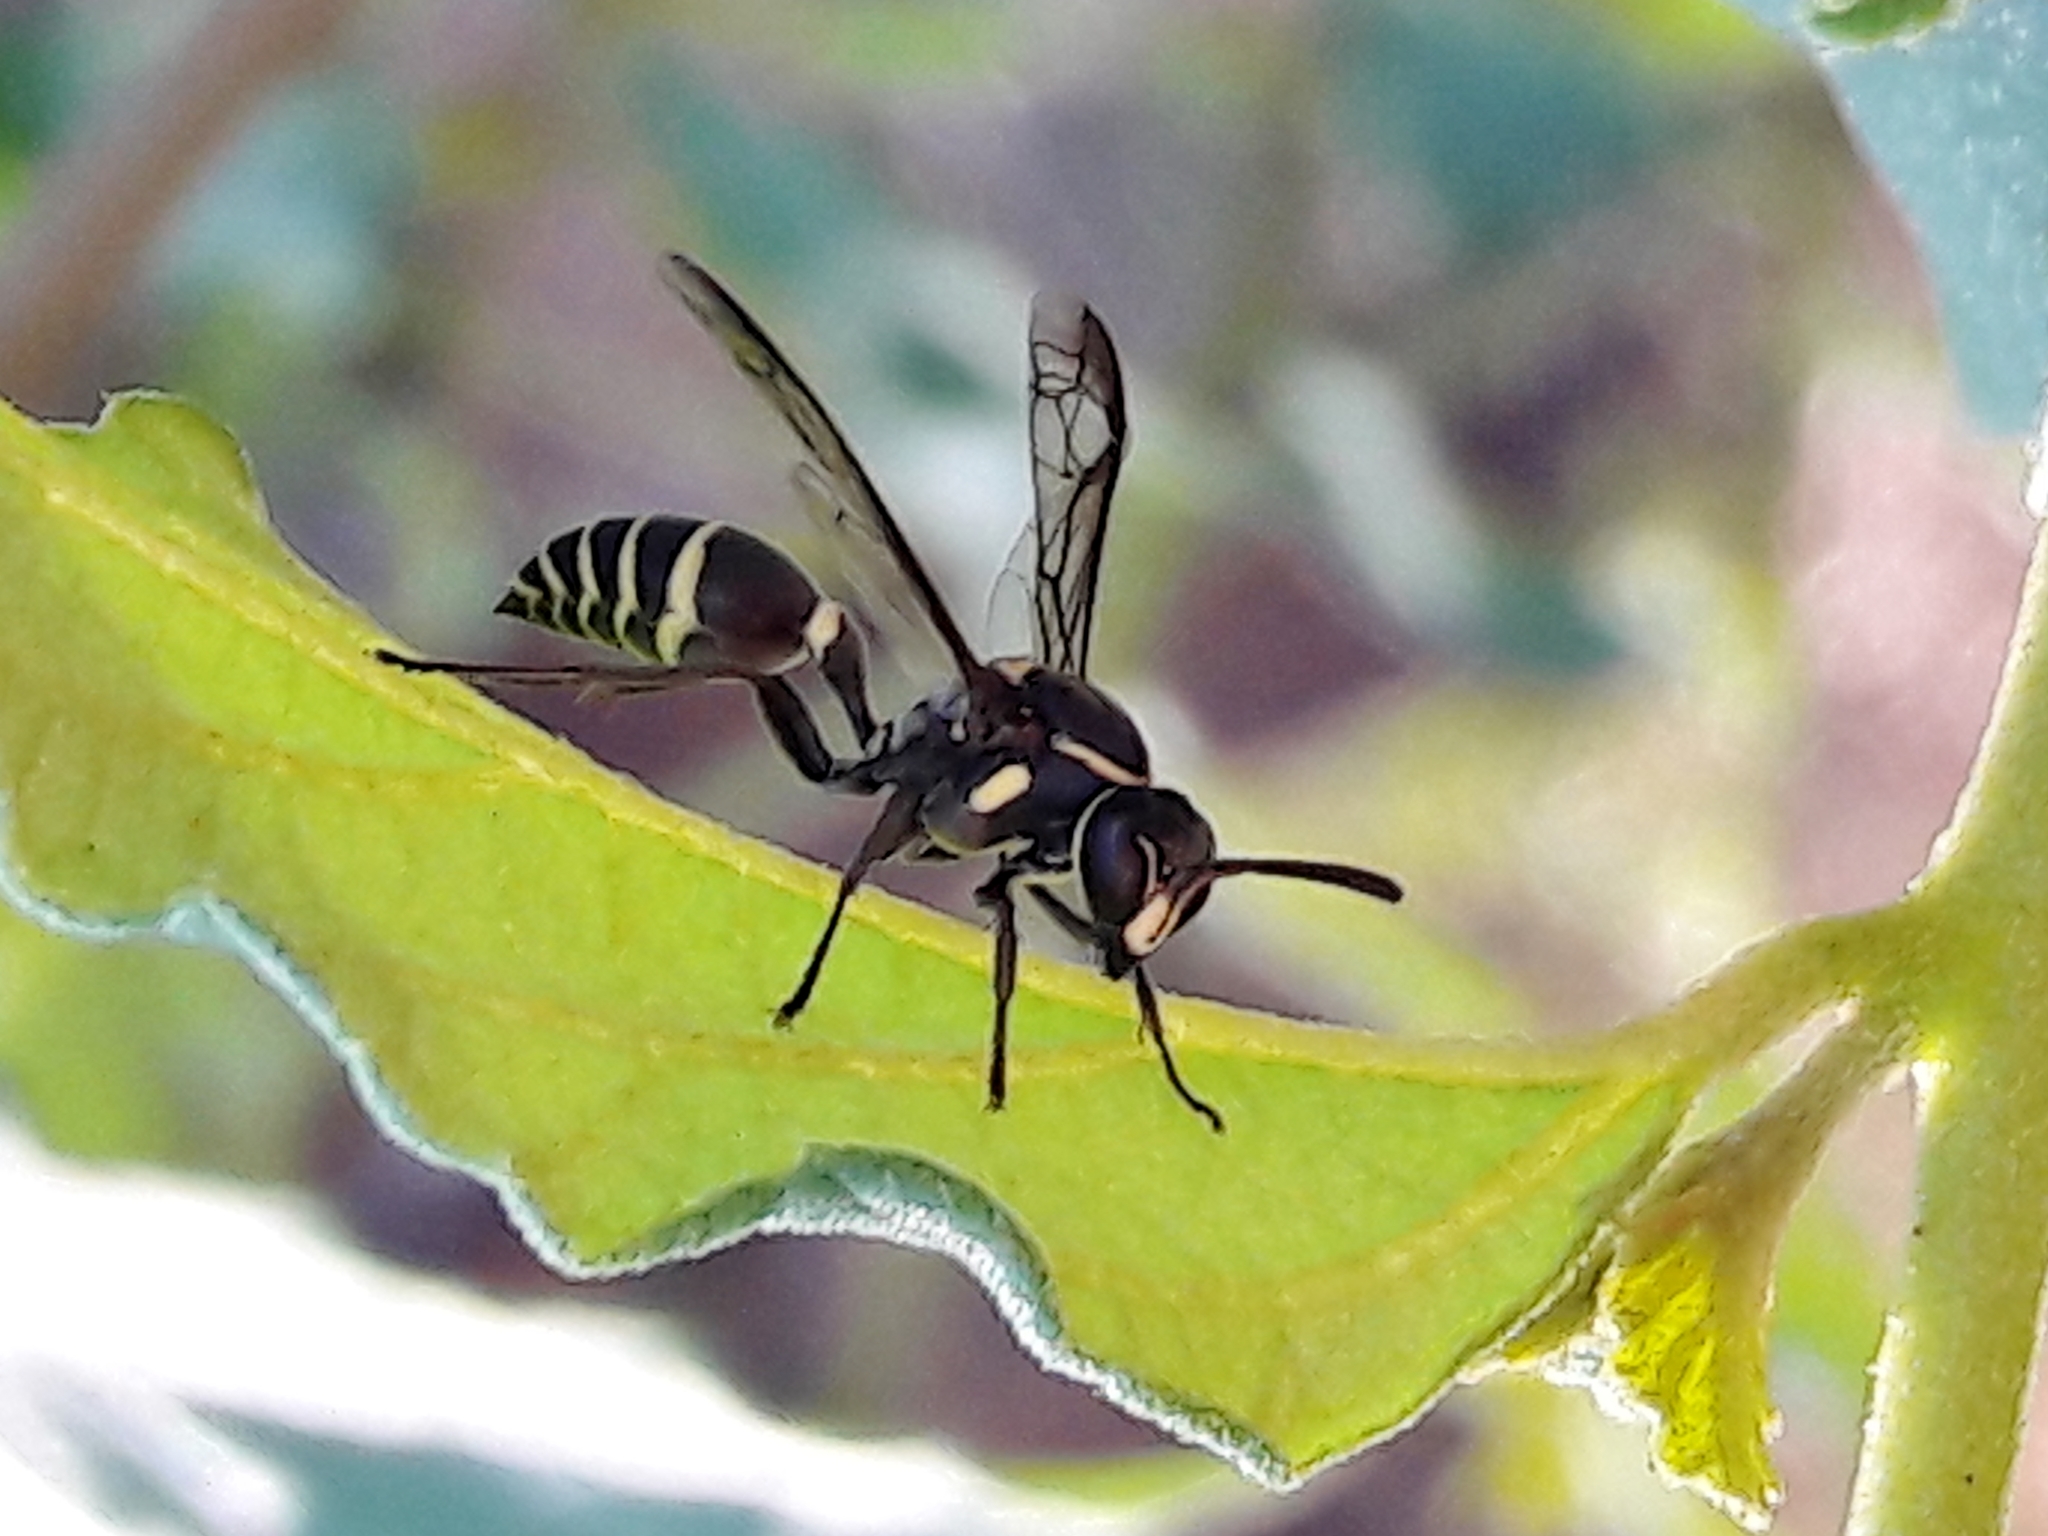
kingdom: Animalia
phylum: Arthropoda
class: Insecta
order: Hymenoptera
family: Eumenidae
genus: Polybia
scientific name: Polybia occidentalis
